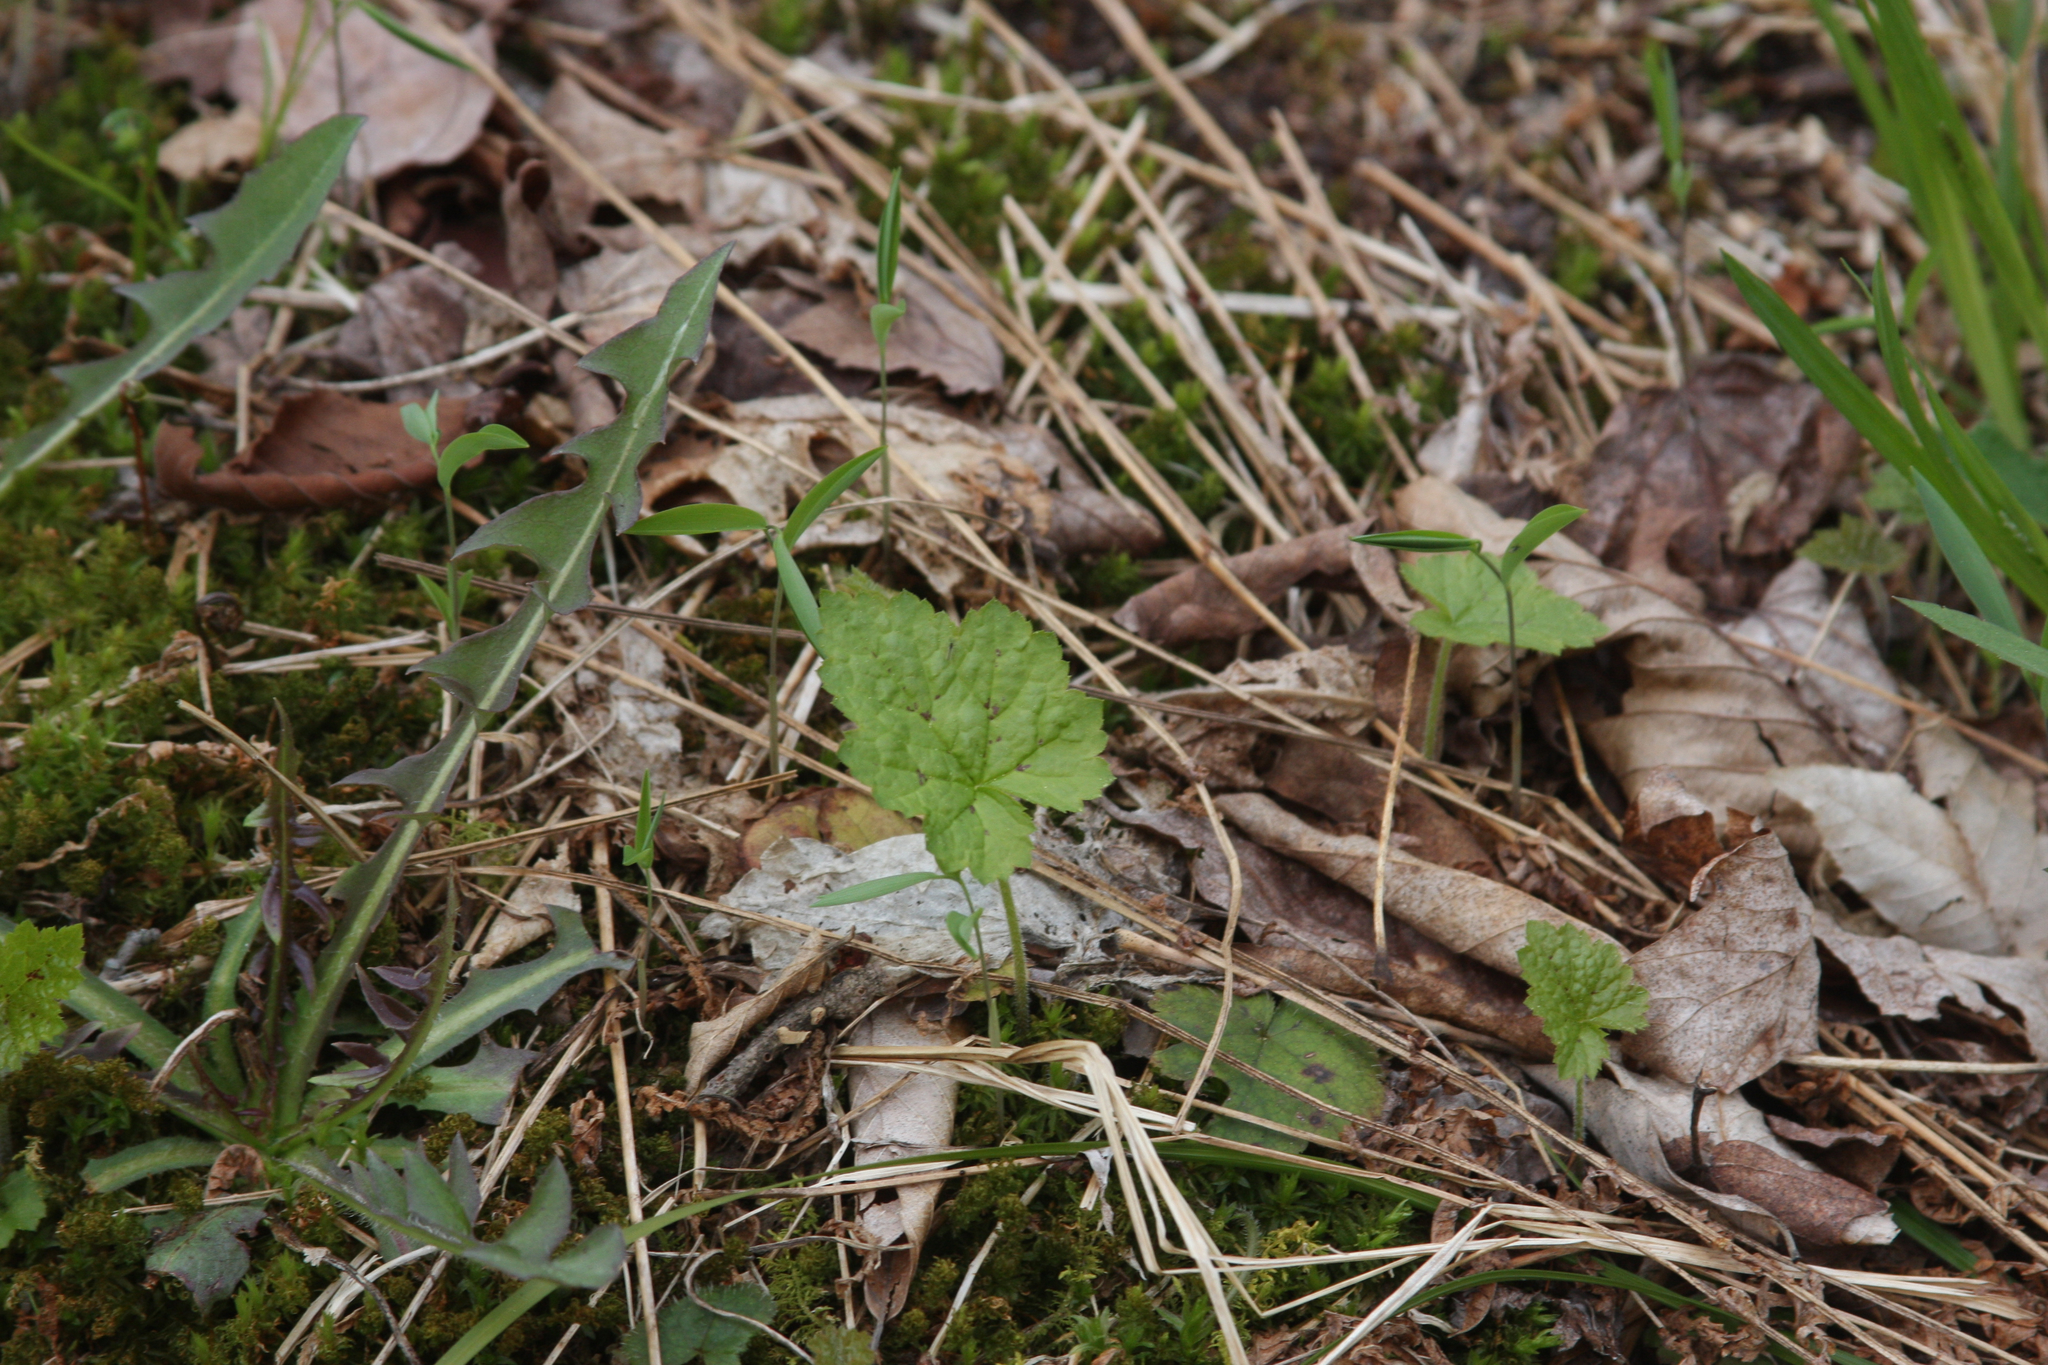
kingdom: Plantae
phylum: Tracheophyta
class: Magnoliopsida
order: Saxifragales
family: Saxifragaceae
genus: Tiarella
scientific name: Tiarella stolonifera
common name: Stoloniferous foamflower
